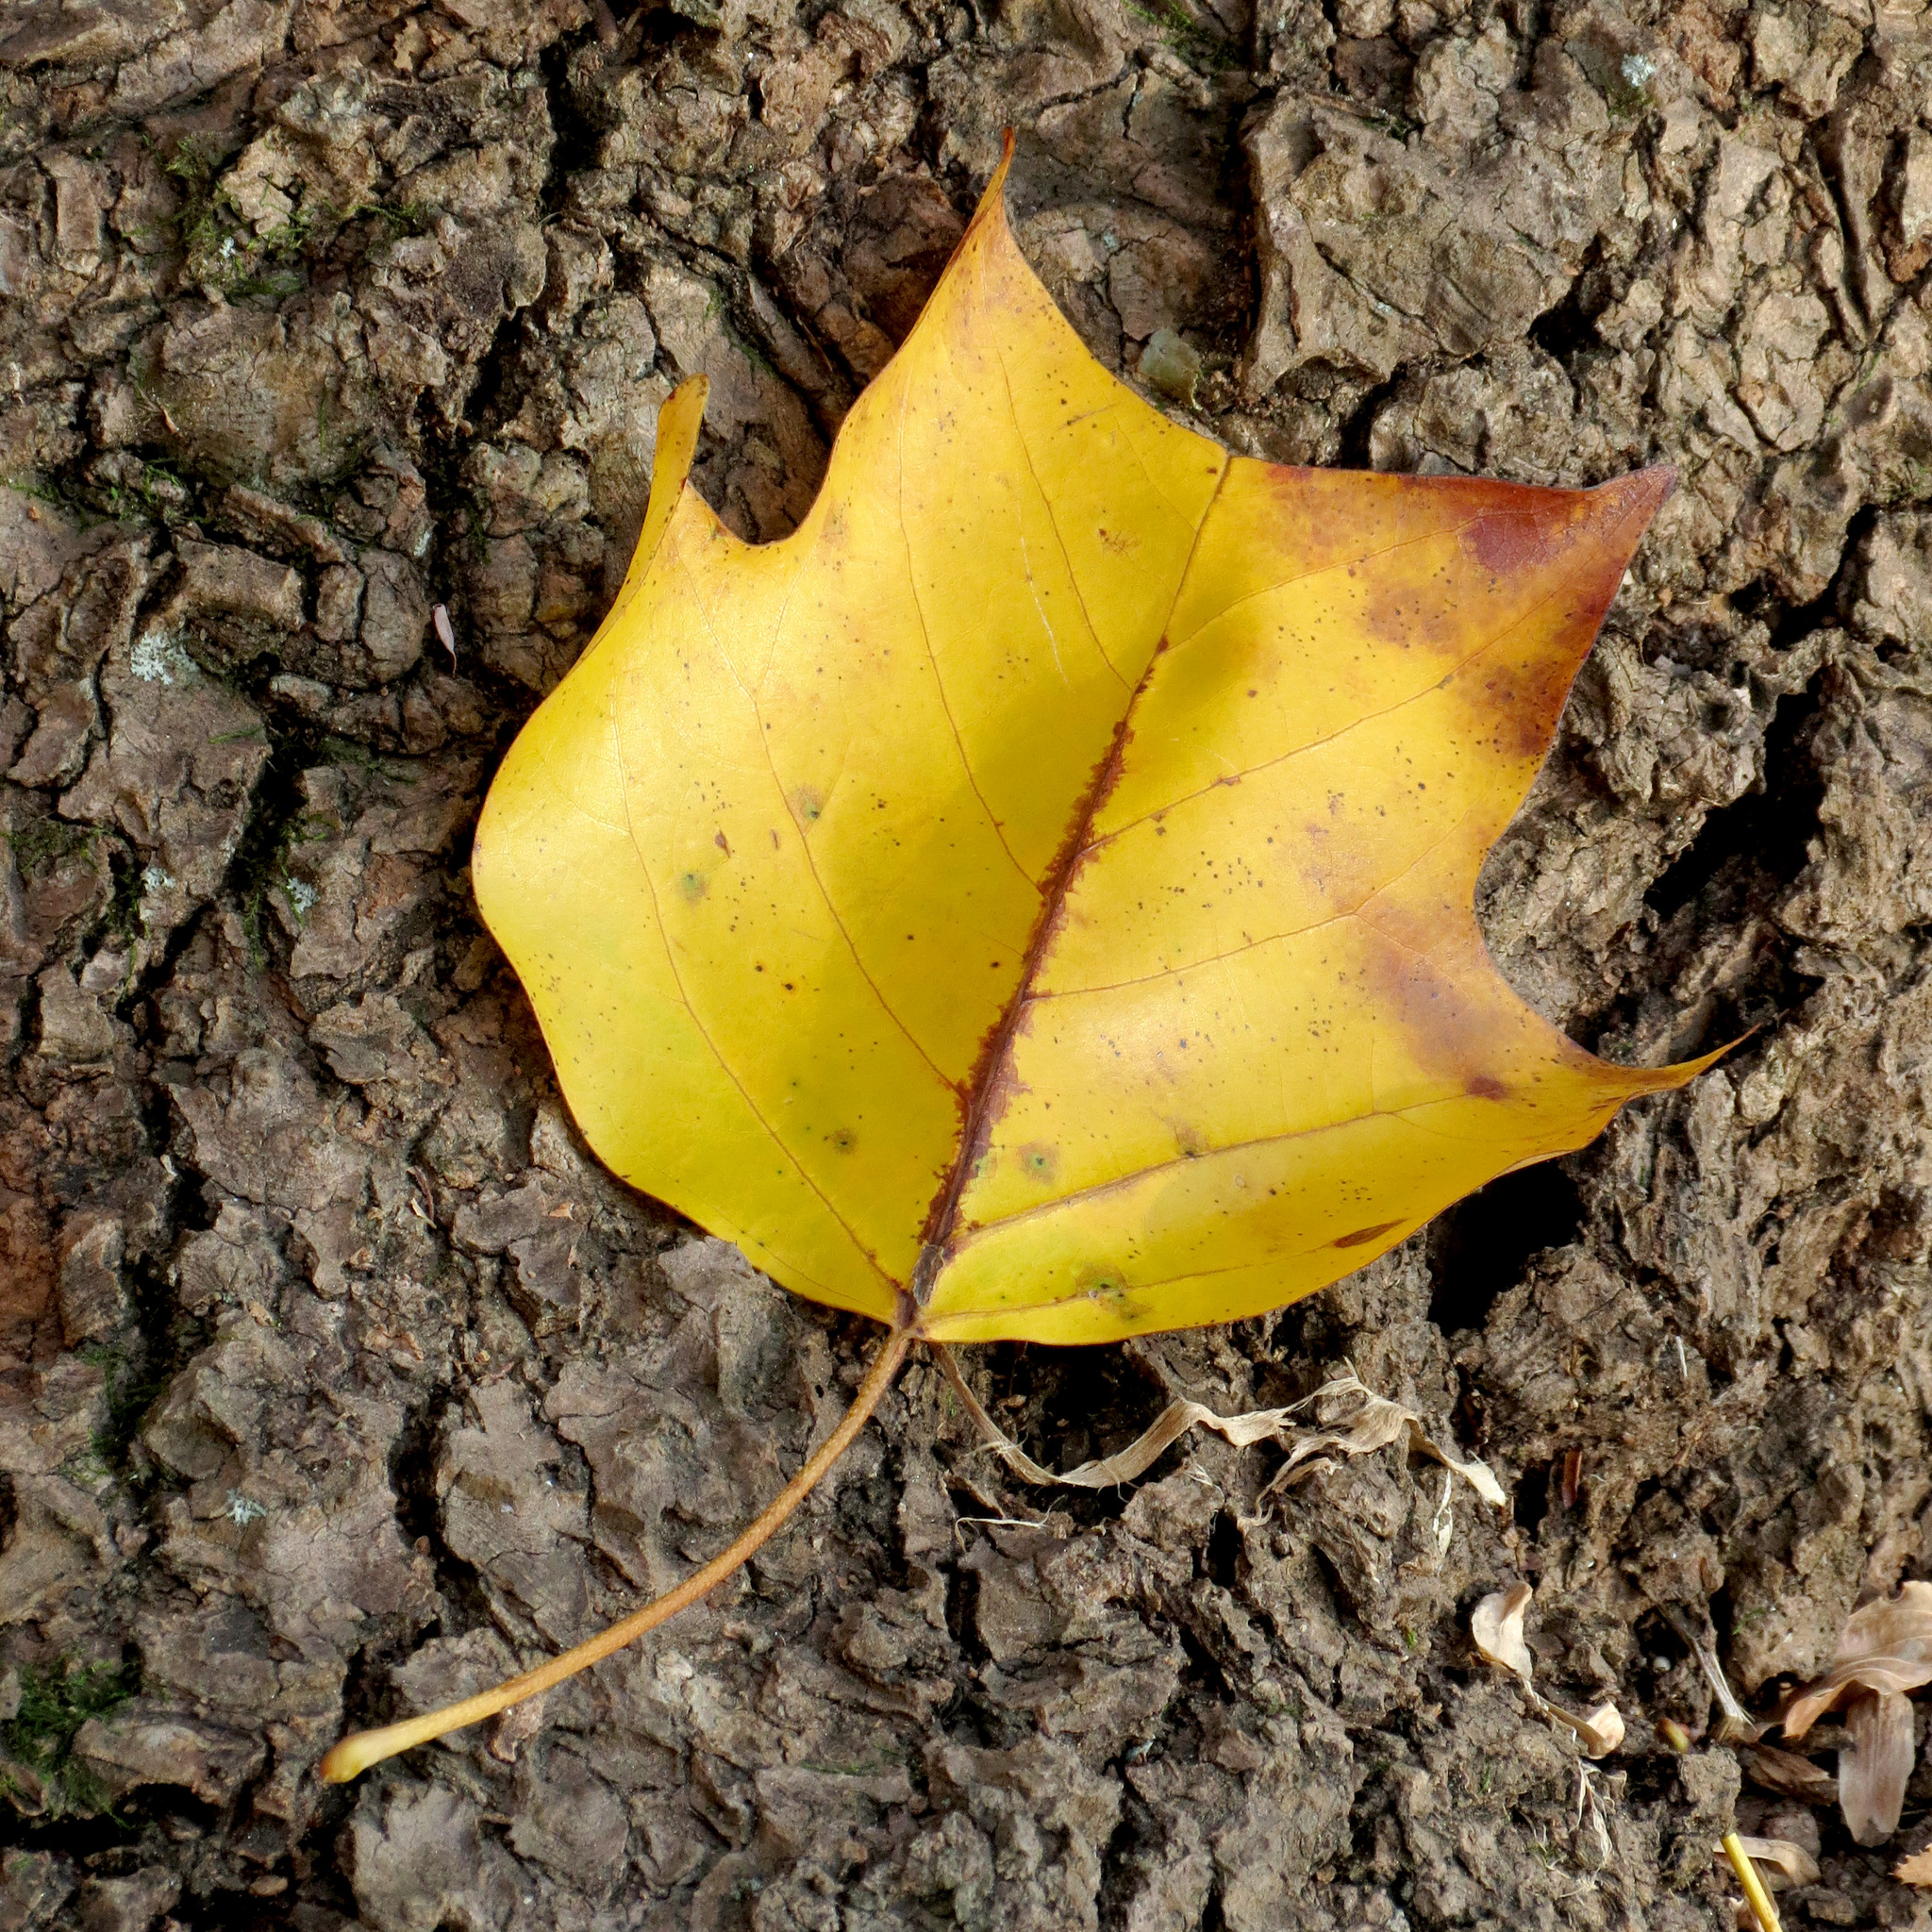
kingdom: Plantae
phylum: Tracheophyta
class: Magnoliopsida
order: Magnoliales
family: Magnoliaceae
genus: Liriodendron
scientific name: Liriodendron tulipifera
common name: Tulip tree
